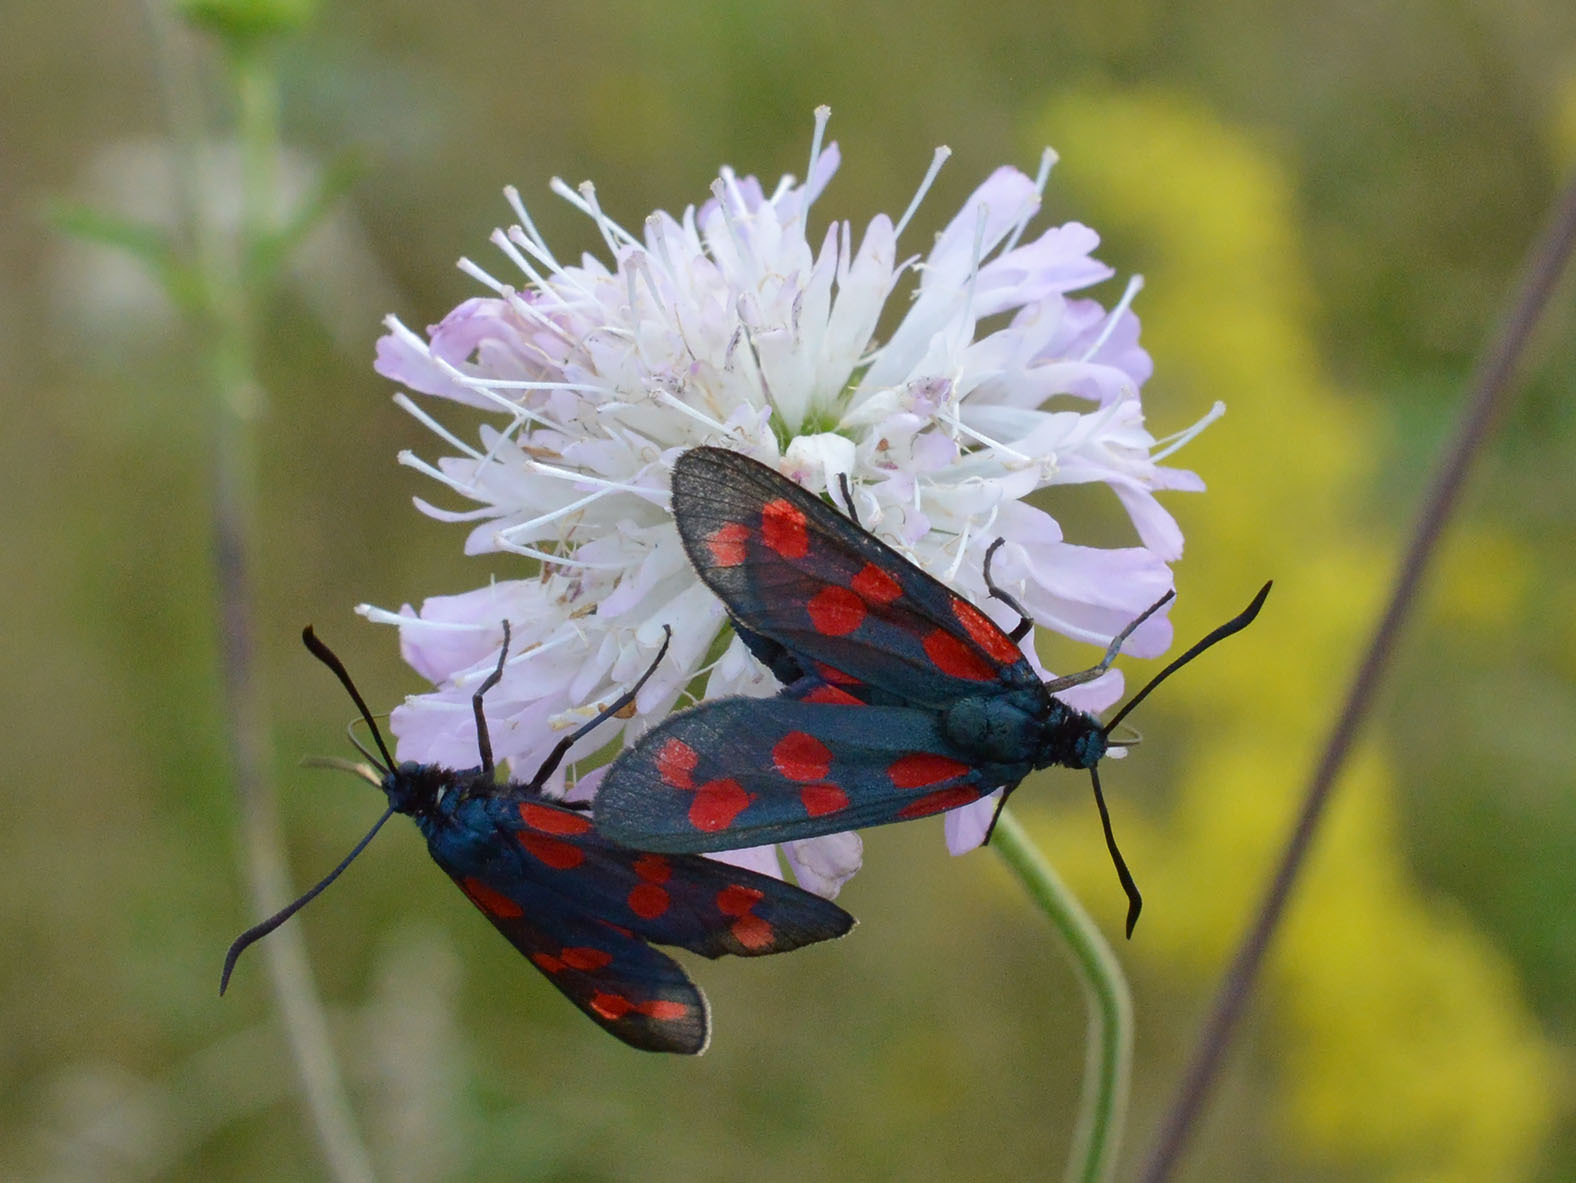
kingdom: Animalia
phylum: Arthropoda
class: Insecta
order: Lepidoptera
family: Zygaenidae
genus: Zygaena
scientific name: Zygaena filipendulae
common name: Six-spot burnet
